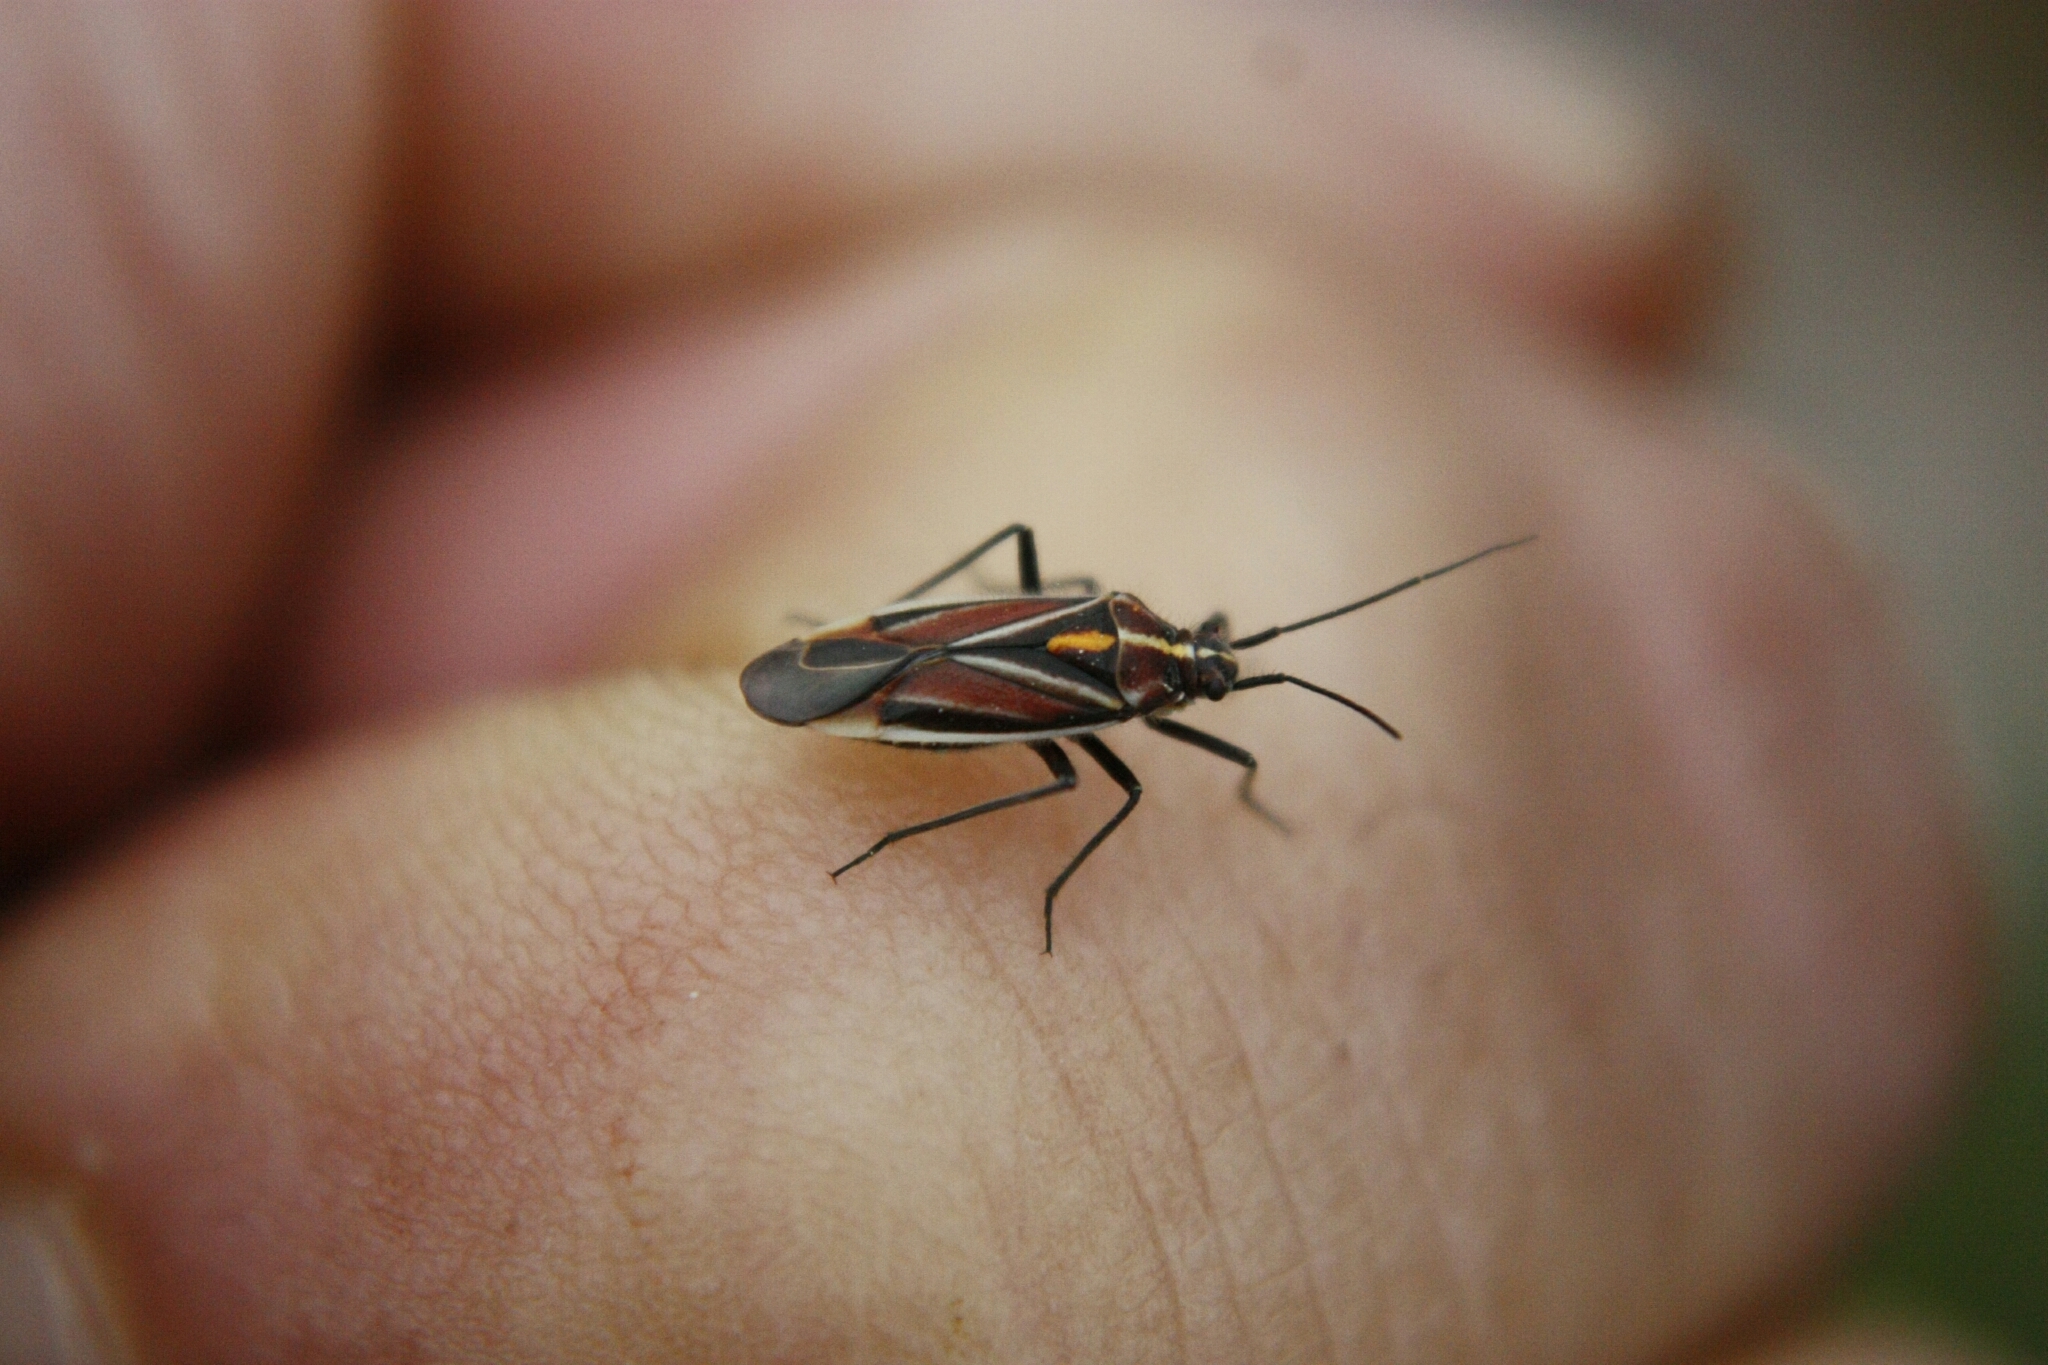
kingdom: Animalia
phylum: Arthropoda
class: Insecta
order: Hemiptera
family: Miridae
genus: Horistus
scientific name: Horistus orientalis
